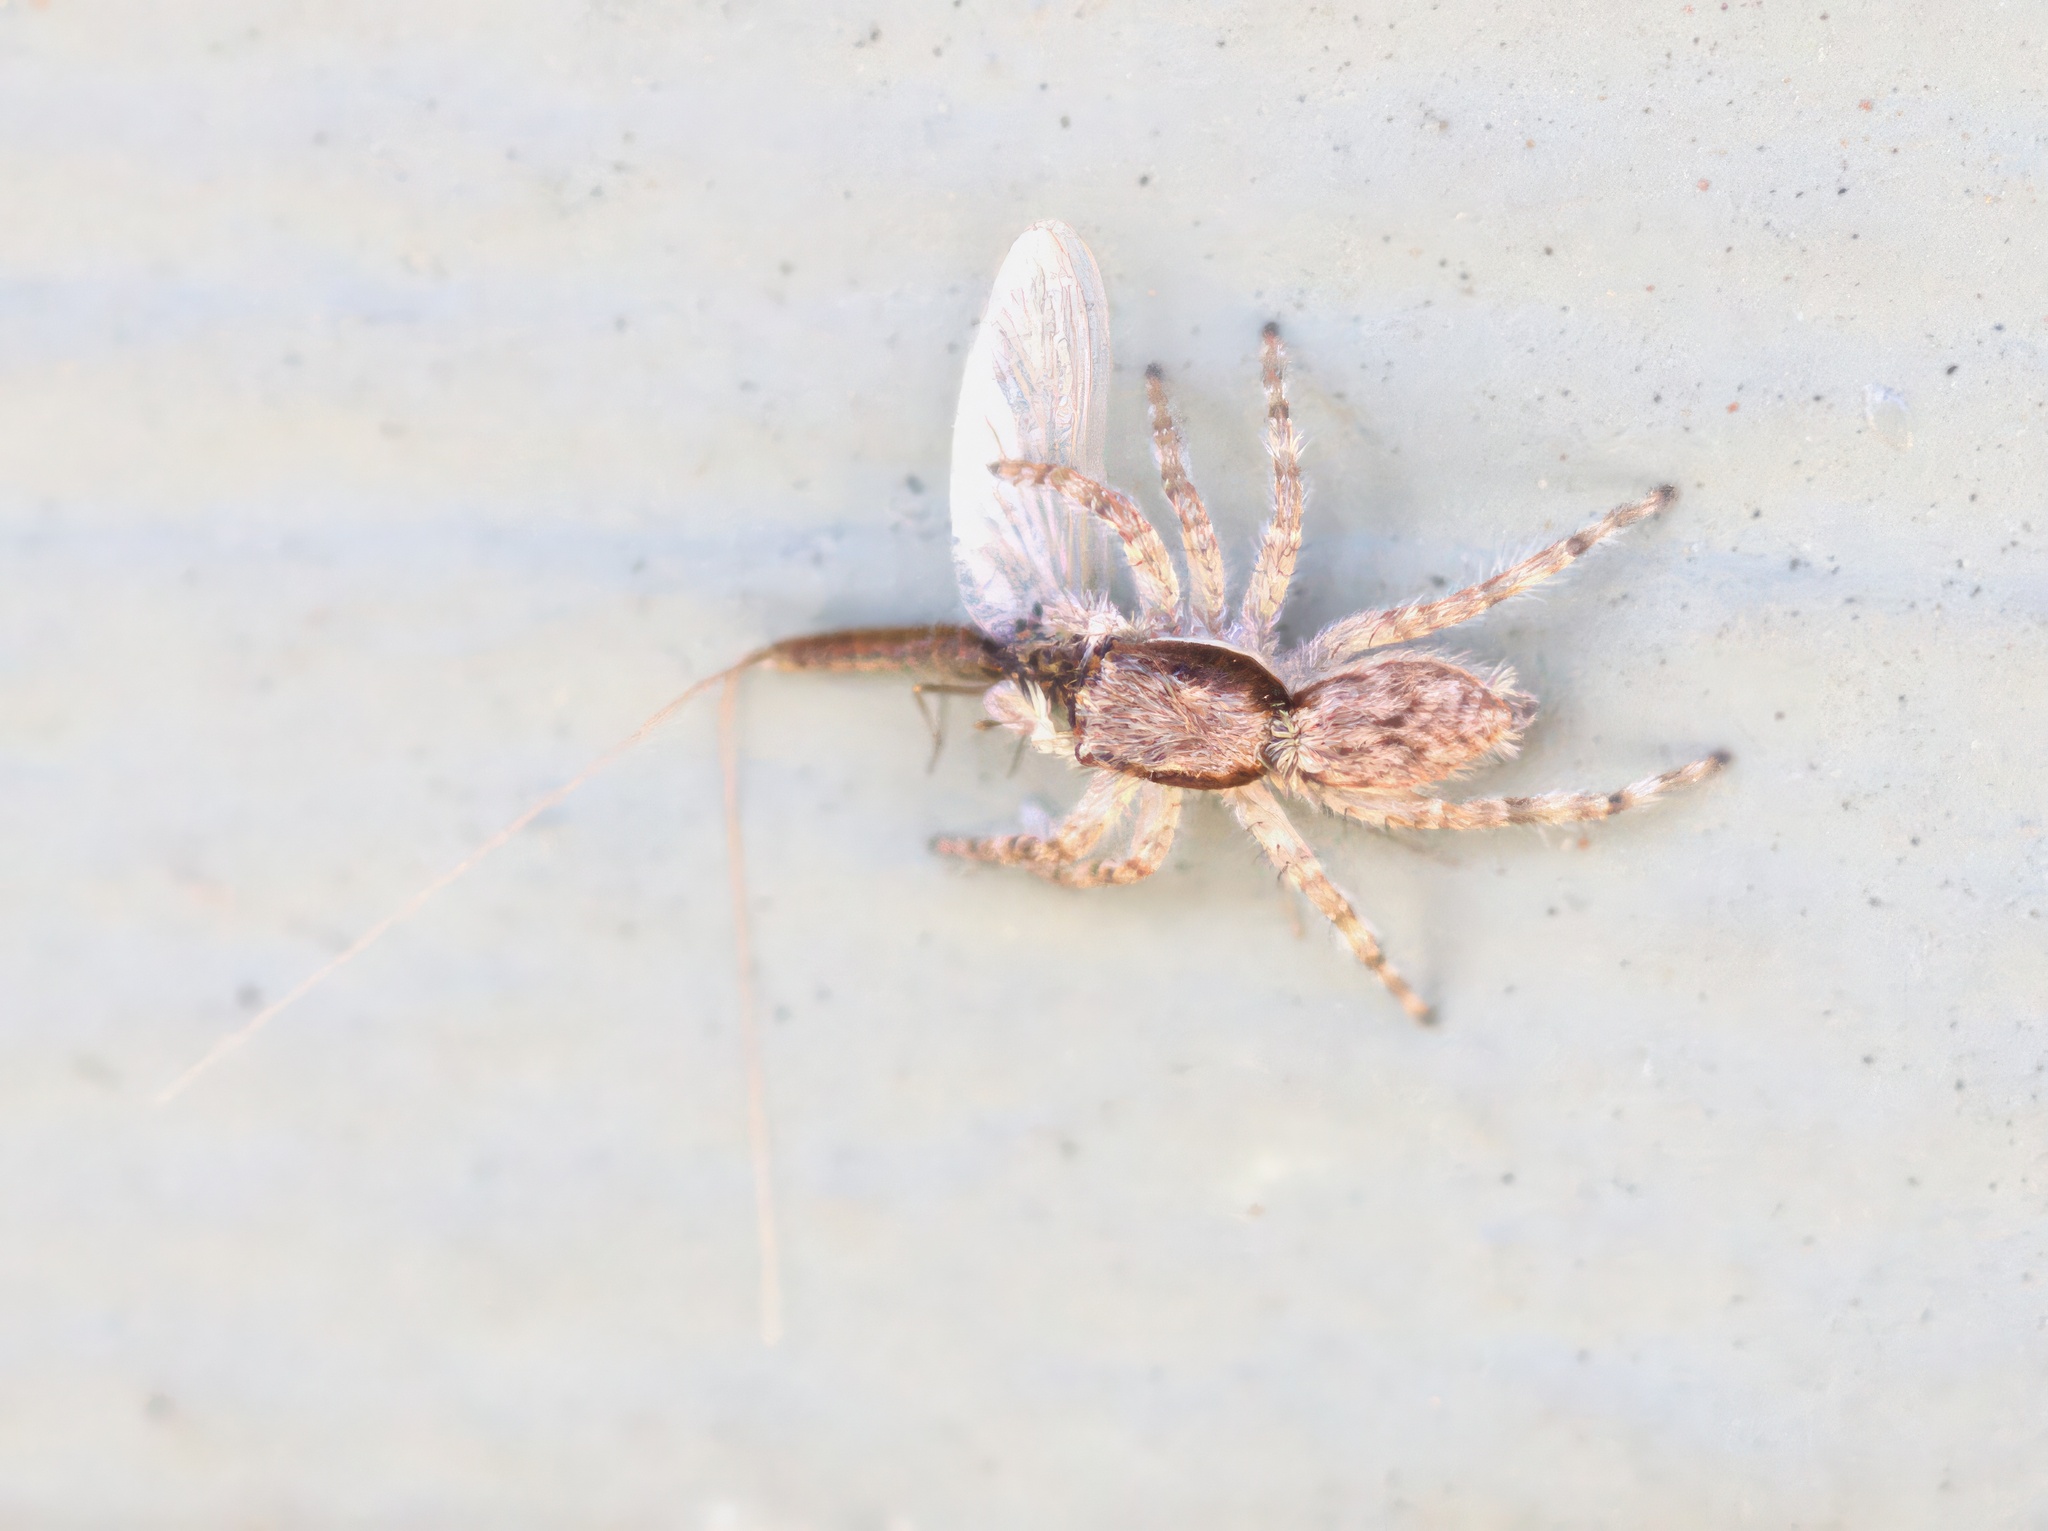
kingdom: Animalia
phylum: Arthropoda
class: Arachnida
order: Araneae
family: Salticidae
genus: Menemerus
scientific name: Menemerus bivittatus
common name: Gray wall jumper
